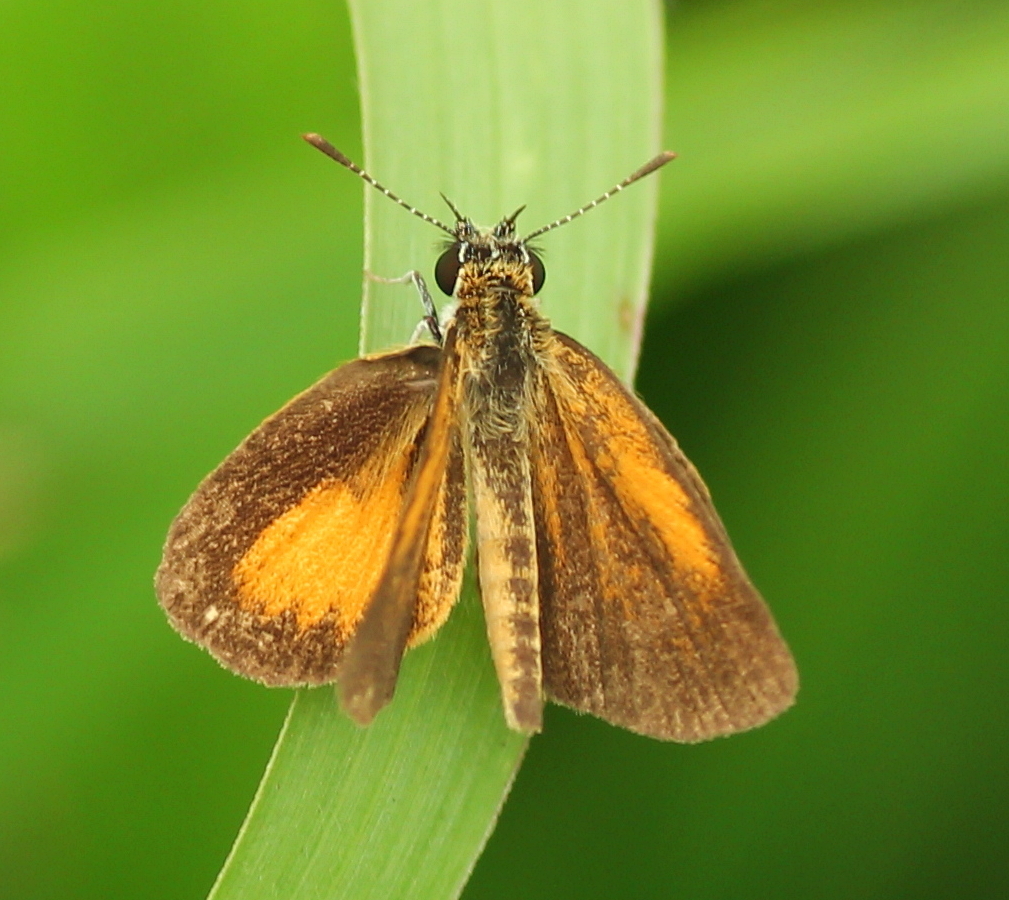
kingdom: Animalia
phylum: Arthropoda
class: Insecta
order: Lepidoptera
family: Hesperiidae
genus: Ancyloxypha
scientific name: Ancyloxypha numitor
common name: Least skipper
